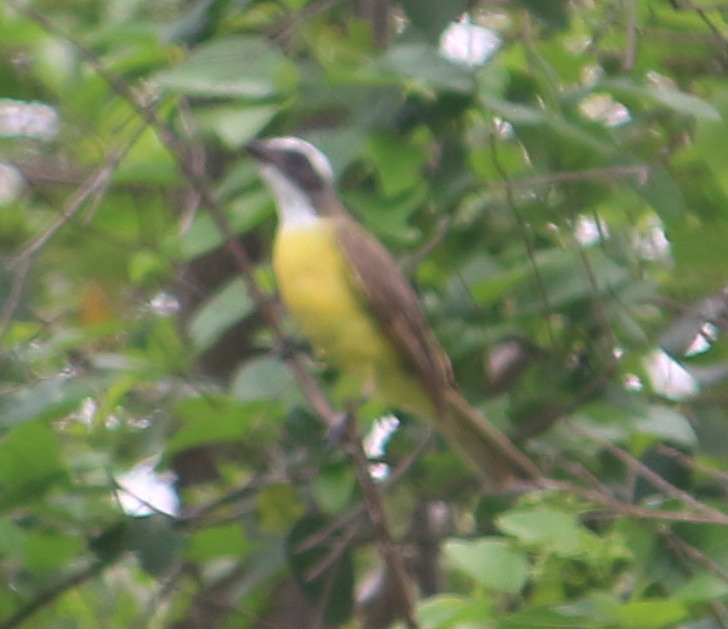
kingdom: Animalia
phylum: Chordata
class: Aves
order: Passeriformes
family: Tyrannidae
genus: Myiozetetes
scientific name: Myiozetetes similis
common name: Social flycatcher
